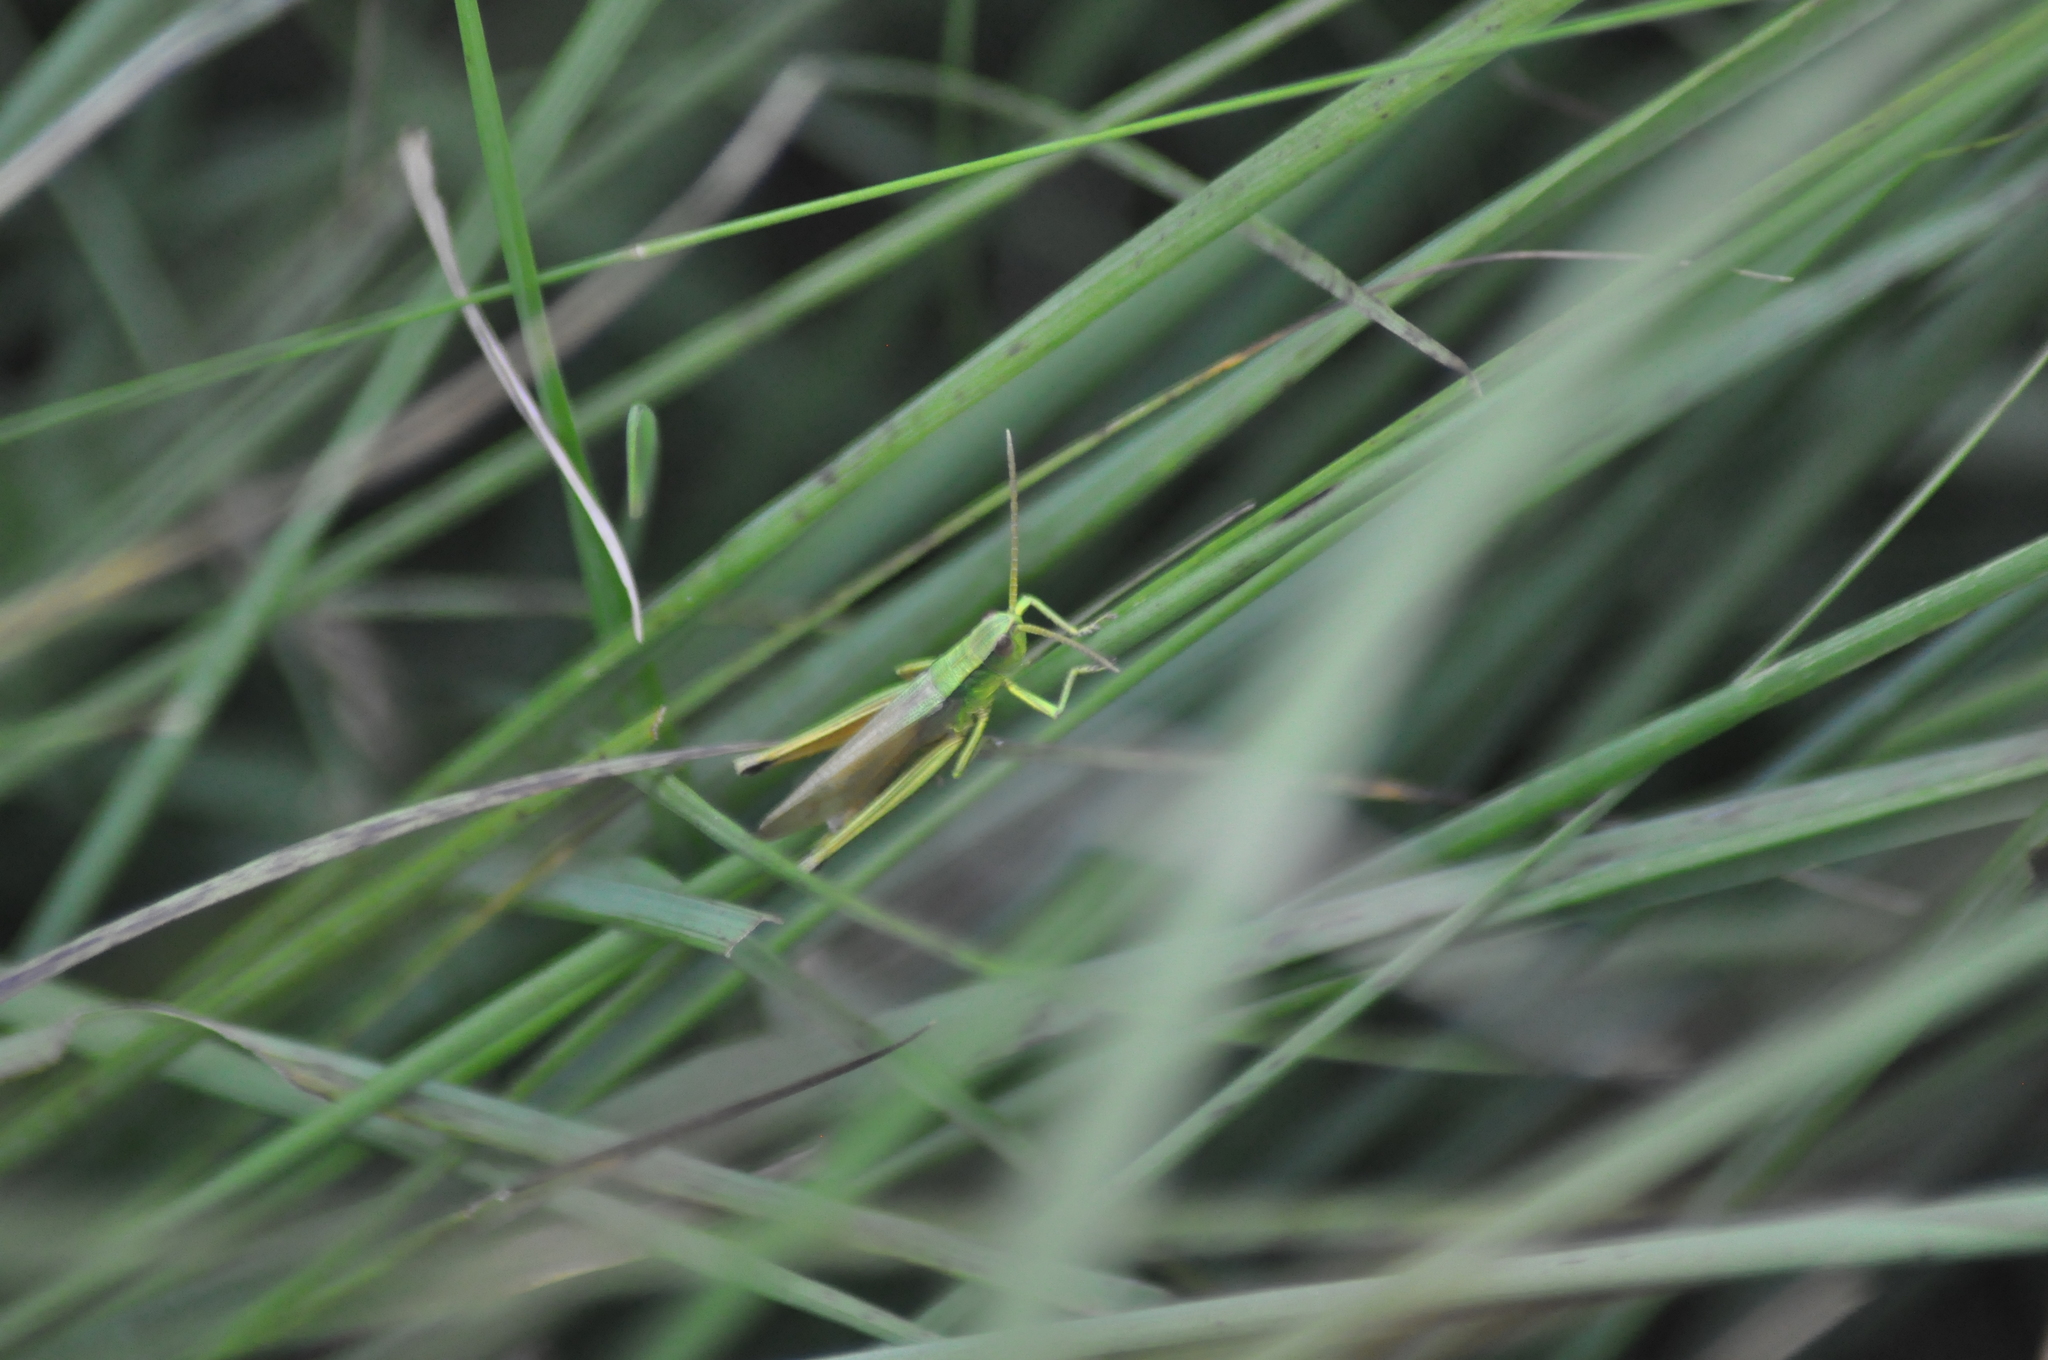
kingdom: Animalia
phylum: Arthropoda
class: Insecta
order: Orthoptera
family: Acrididae
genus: Chrysochraon
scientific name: Chrysochraon dispar
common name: Large gold grasshopper
